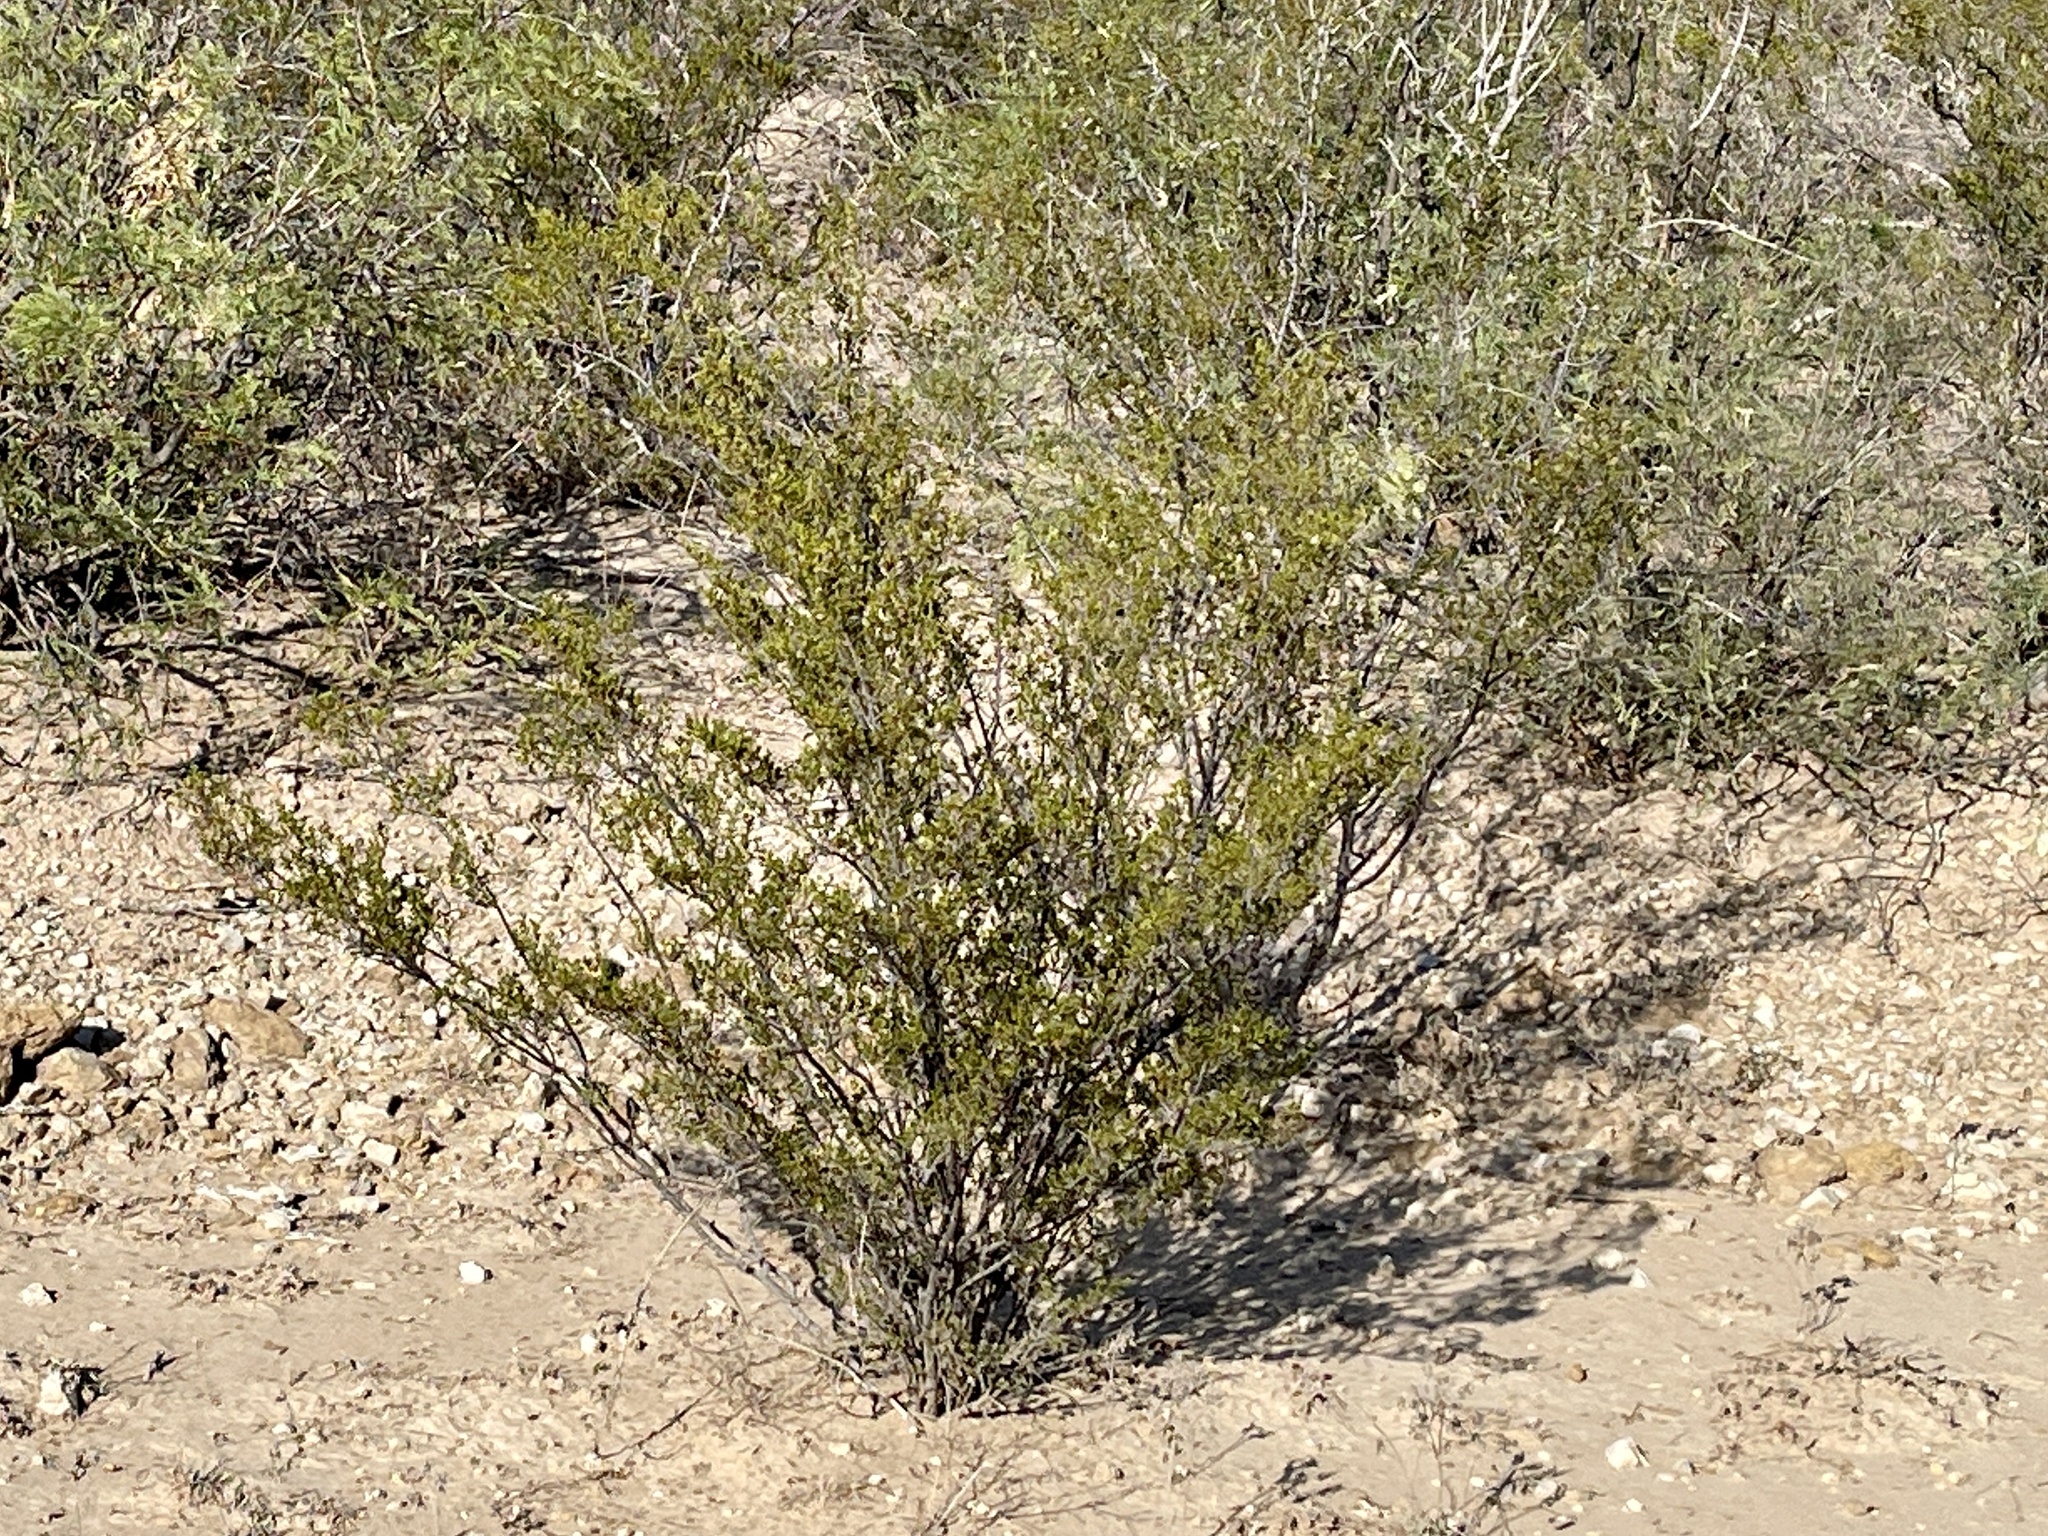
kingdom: Plantae
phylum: Tracheophyta
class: Magnoliopsida
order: Zygophyllales
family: Zygophyllaceae
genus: Larrea
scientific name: Larrea tridentata
